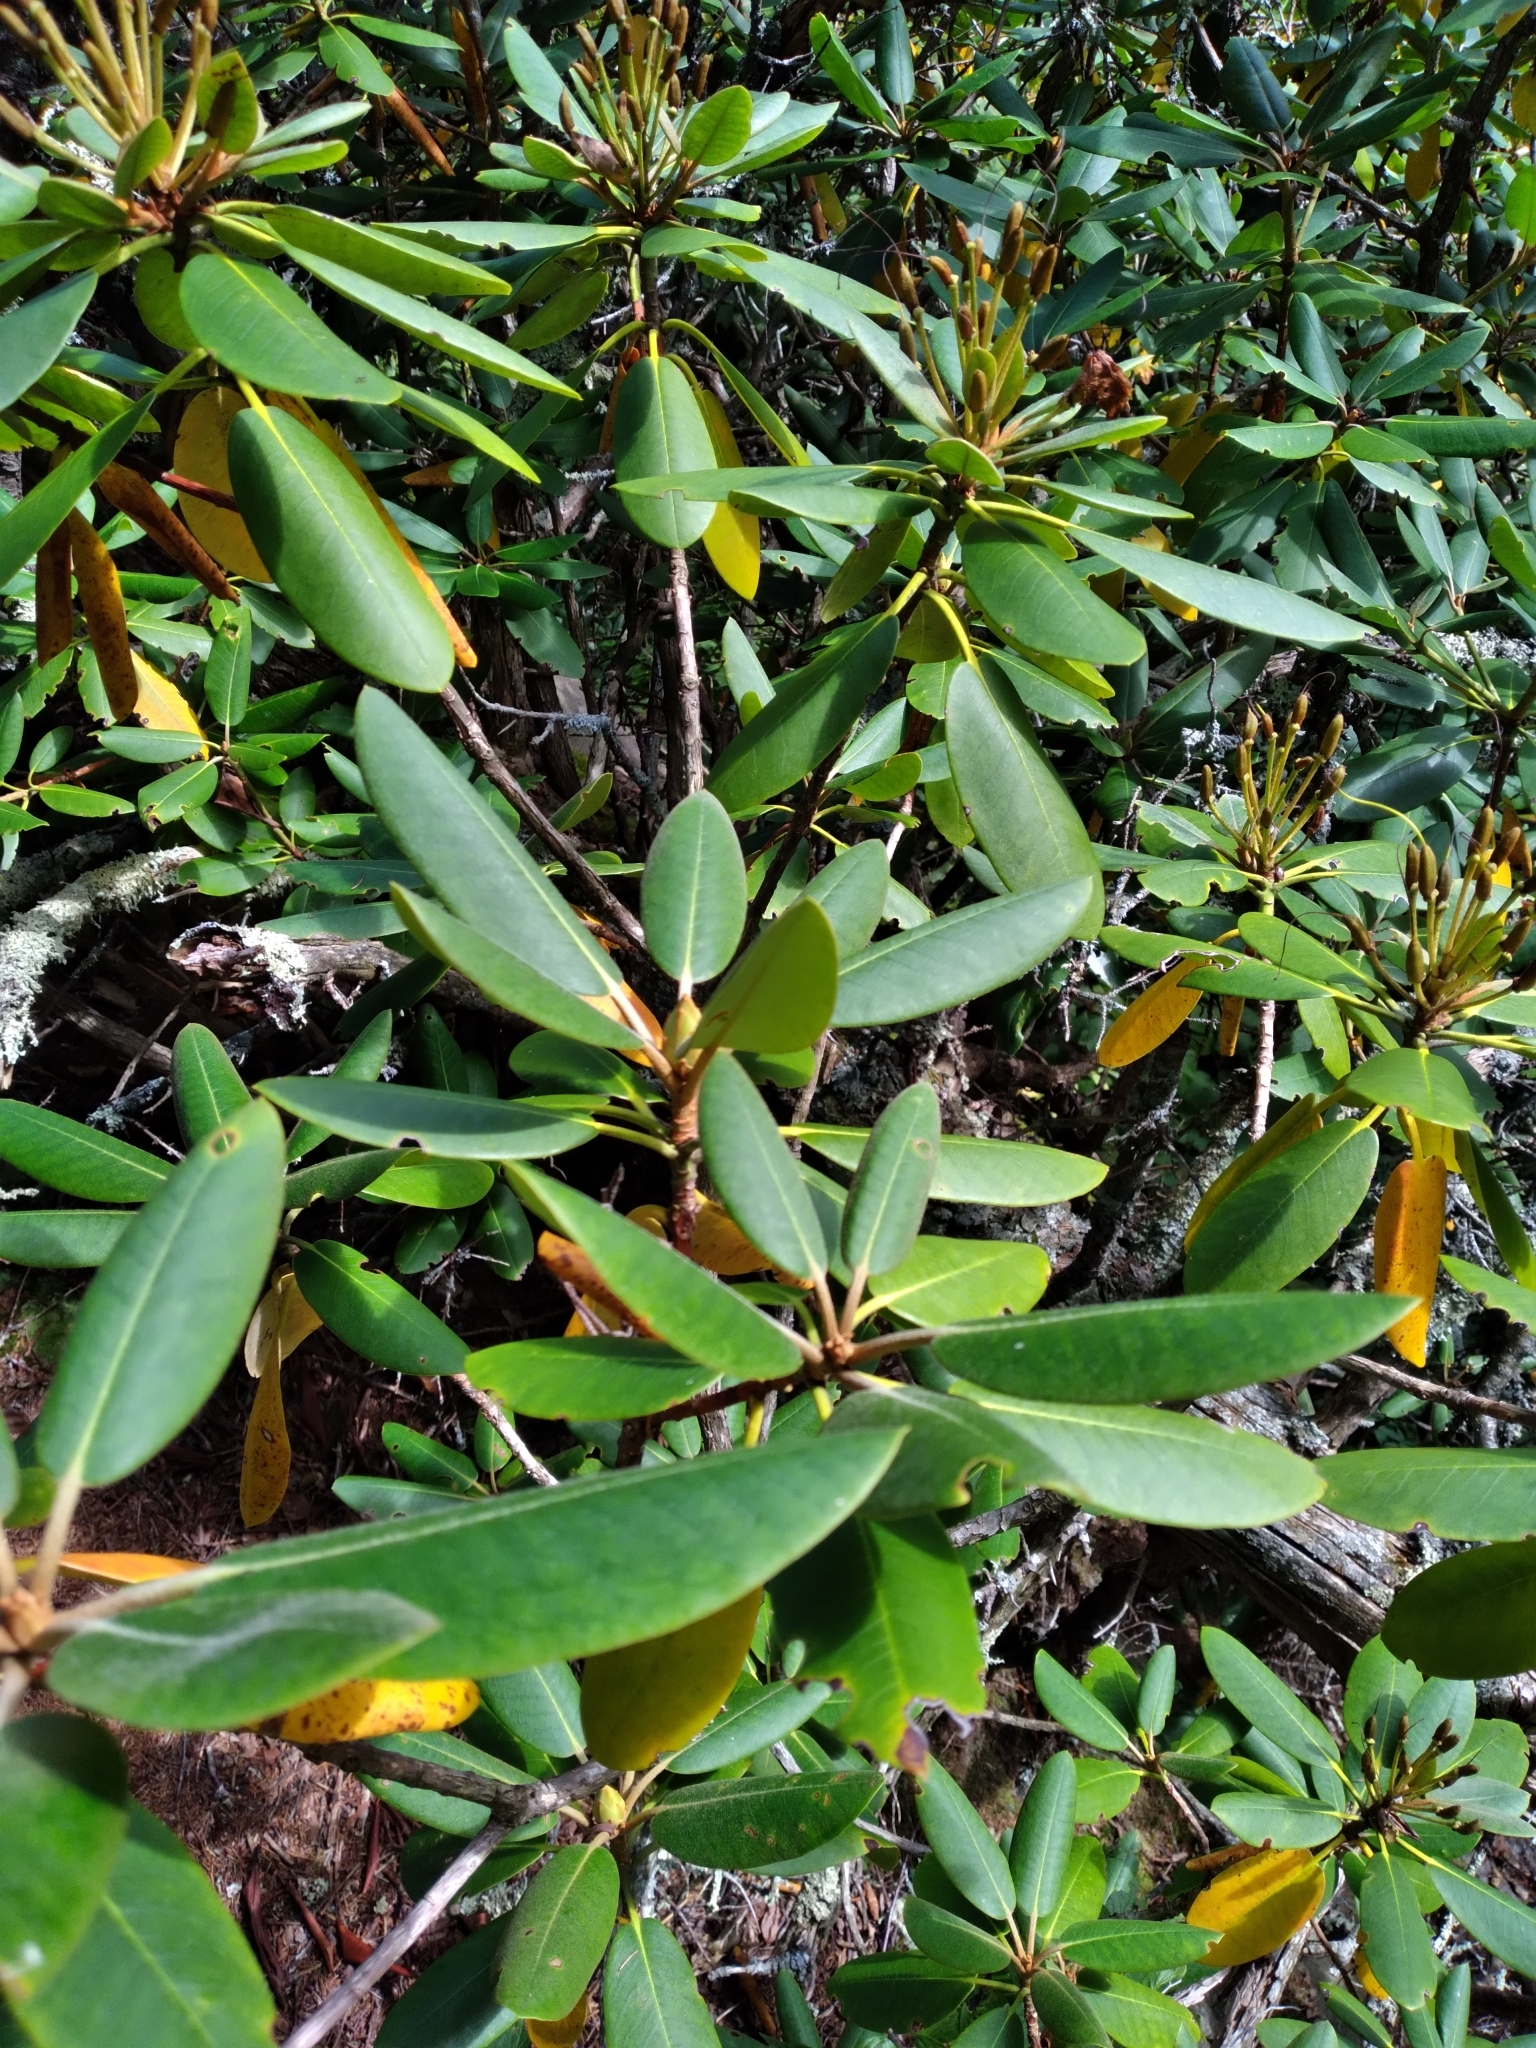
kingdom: Plantae
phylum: Tracheophyta
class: Magnoliopsida
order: Ericales
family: Ericaceae
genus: Rhododendron
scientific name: Rhododendron catawbiense
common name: Catawba rhododendron
